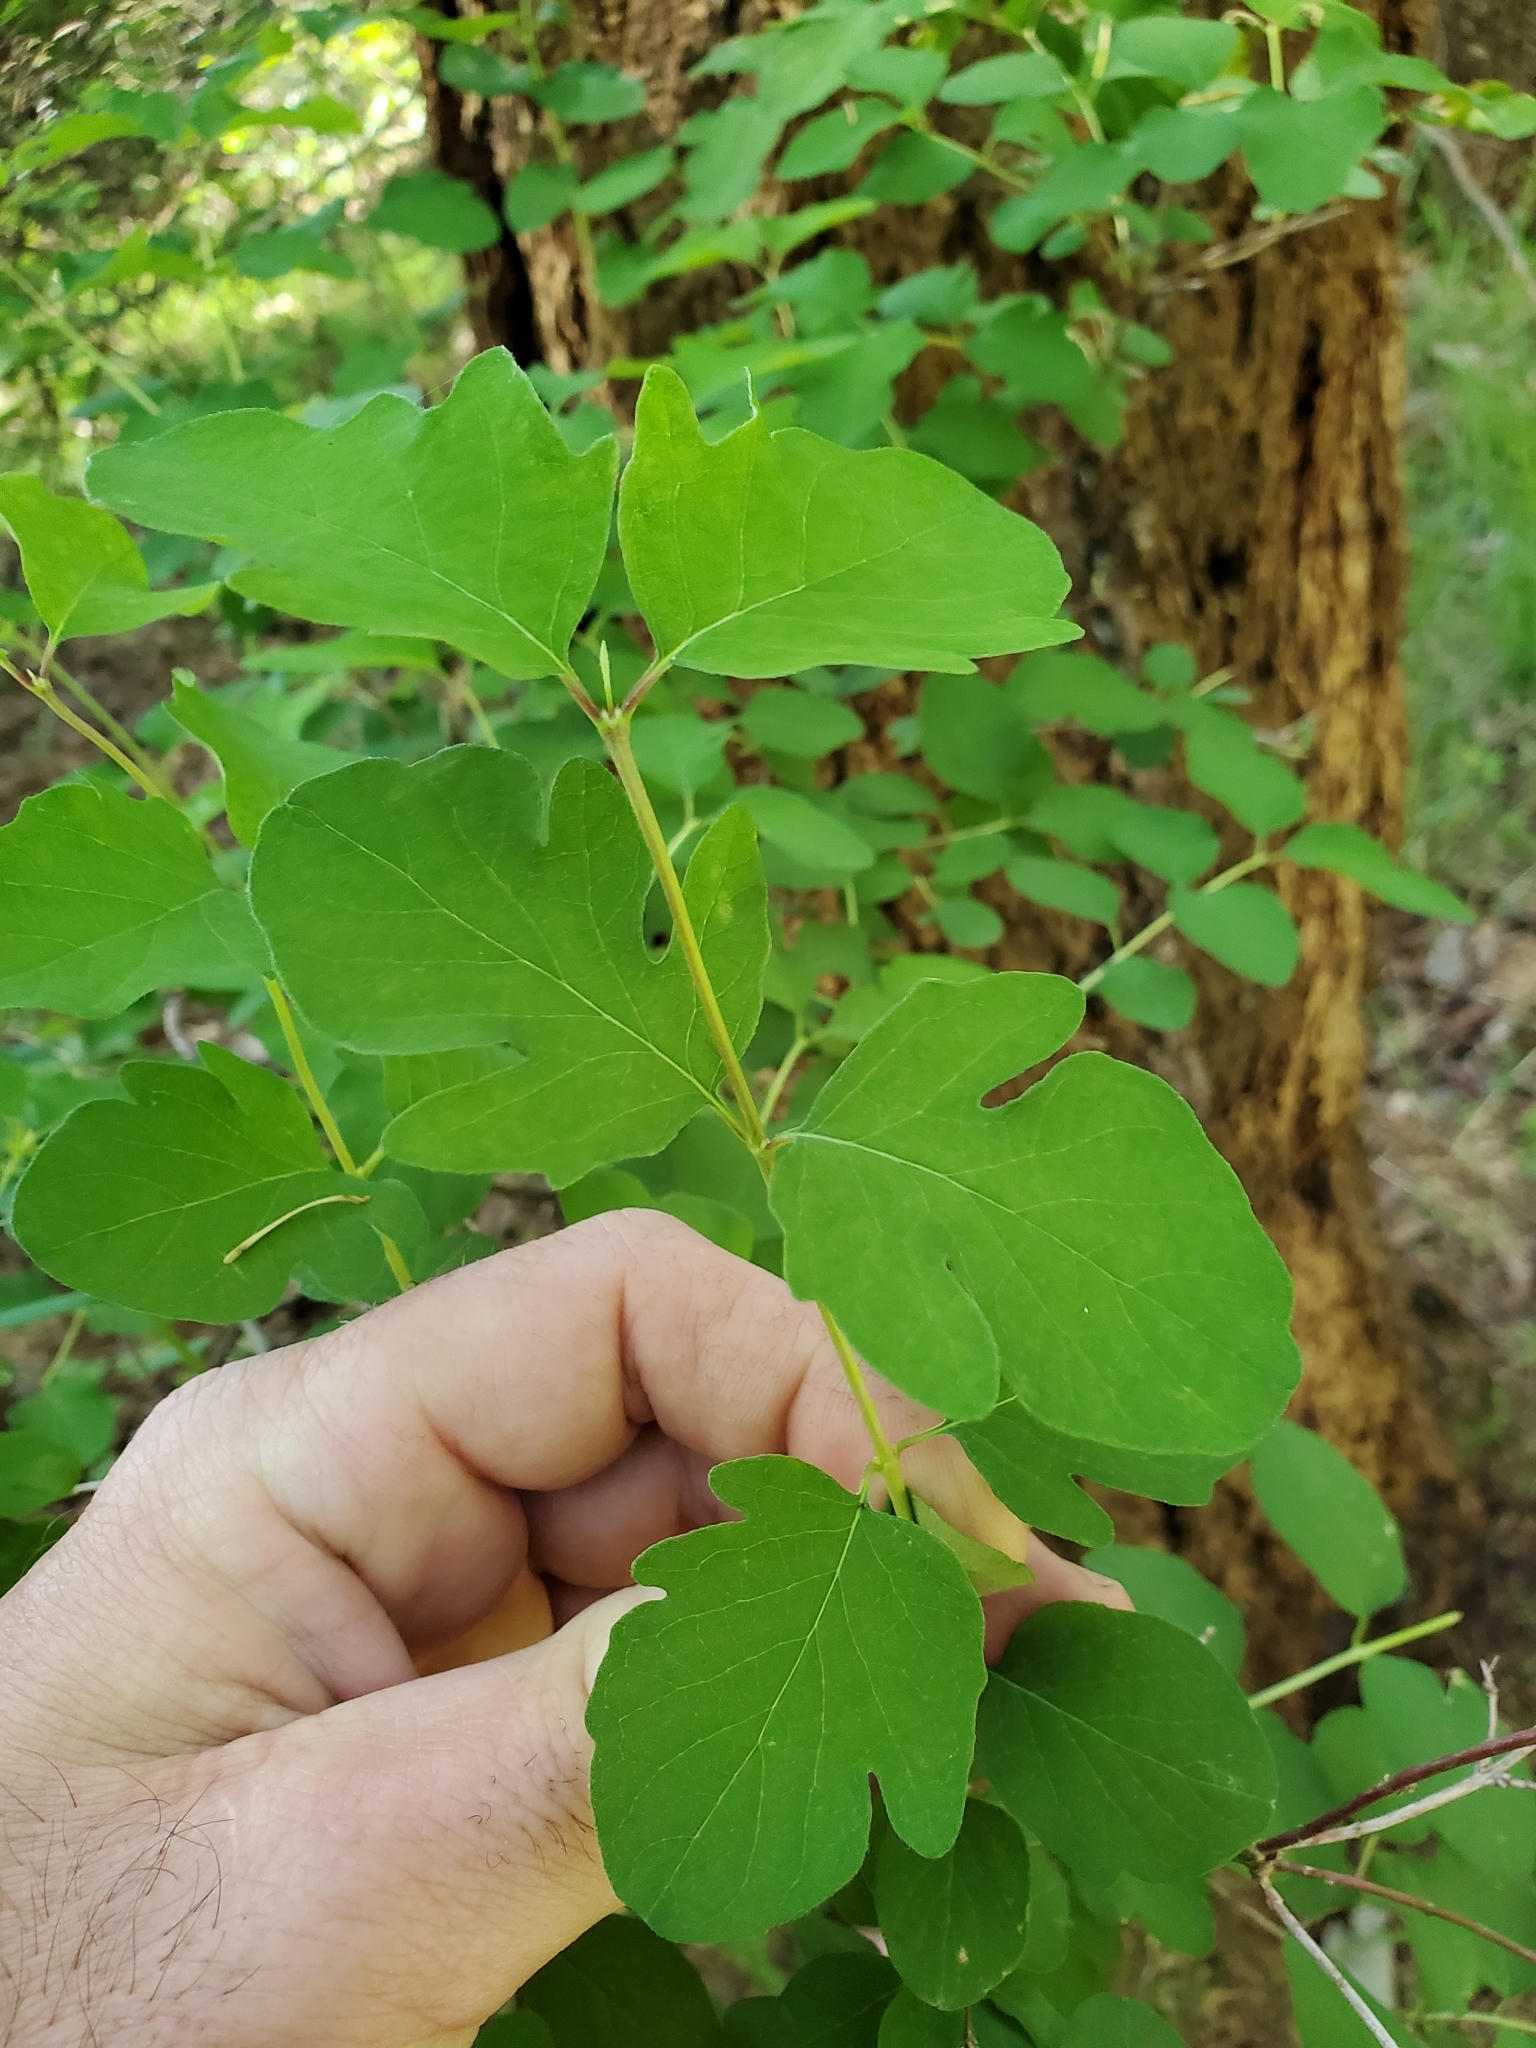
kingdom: Plantae
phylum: Tracheophyta
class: Magnoliopsida
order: Dipsacales
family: Caprifoliaceae
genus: Symphoricarpos
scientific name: Symphoricarpos albus
